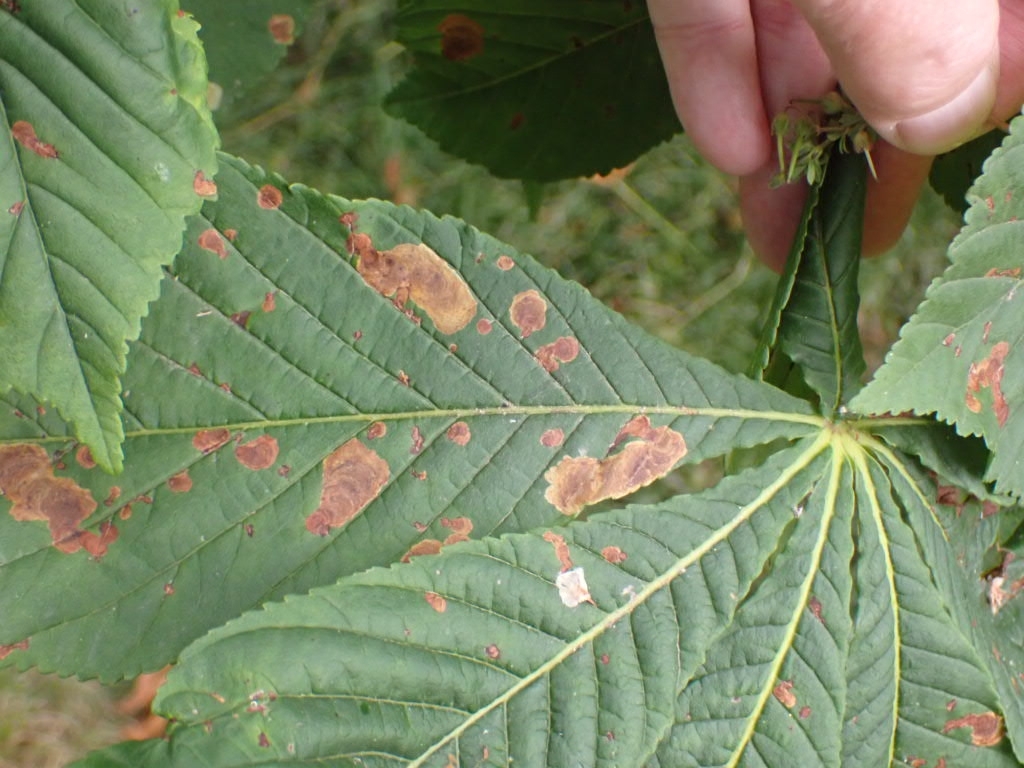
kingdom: Animalia
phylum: Arthropoda
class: Insecta
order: Lepidoptera
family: Gracillariidae
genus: Cameraria
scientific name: Cameraria ohridella
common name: Horse-chestnut leaf-miner
